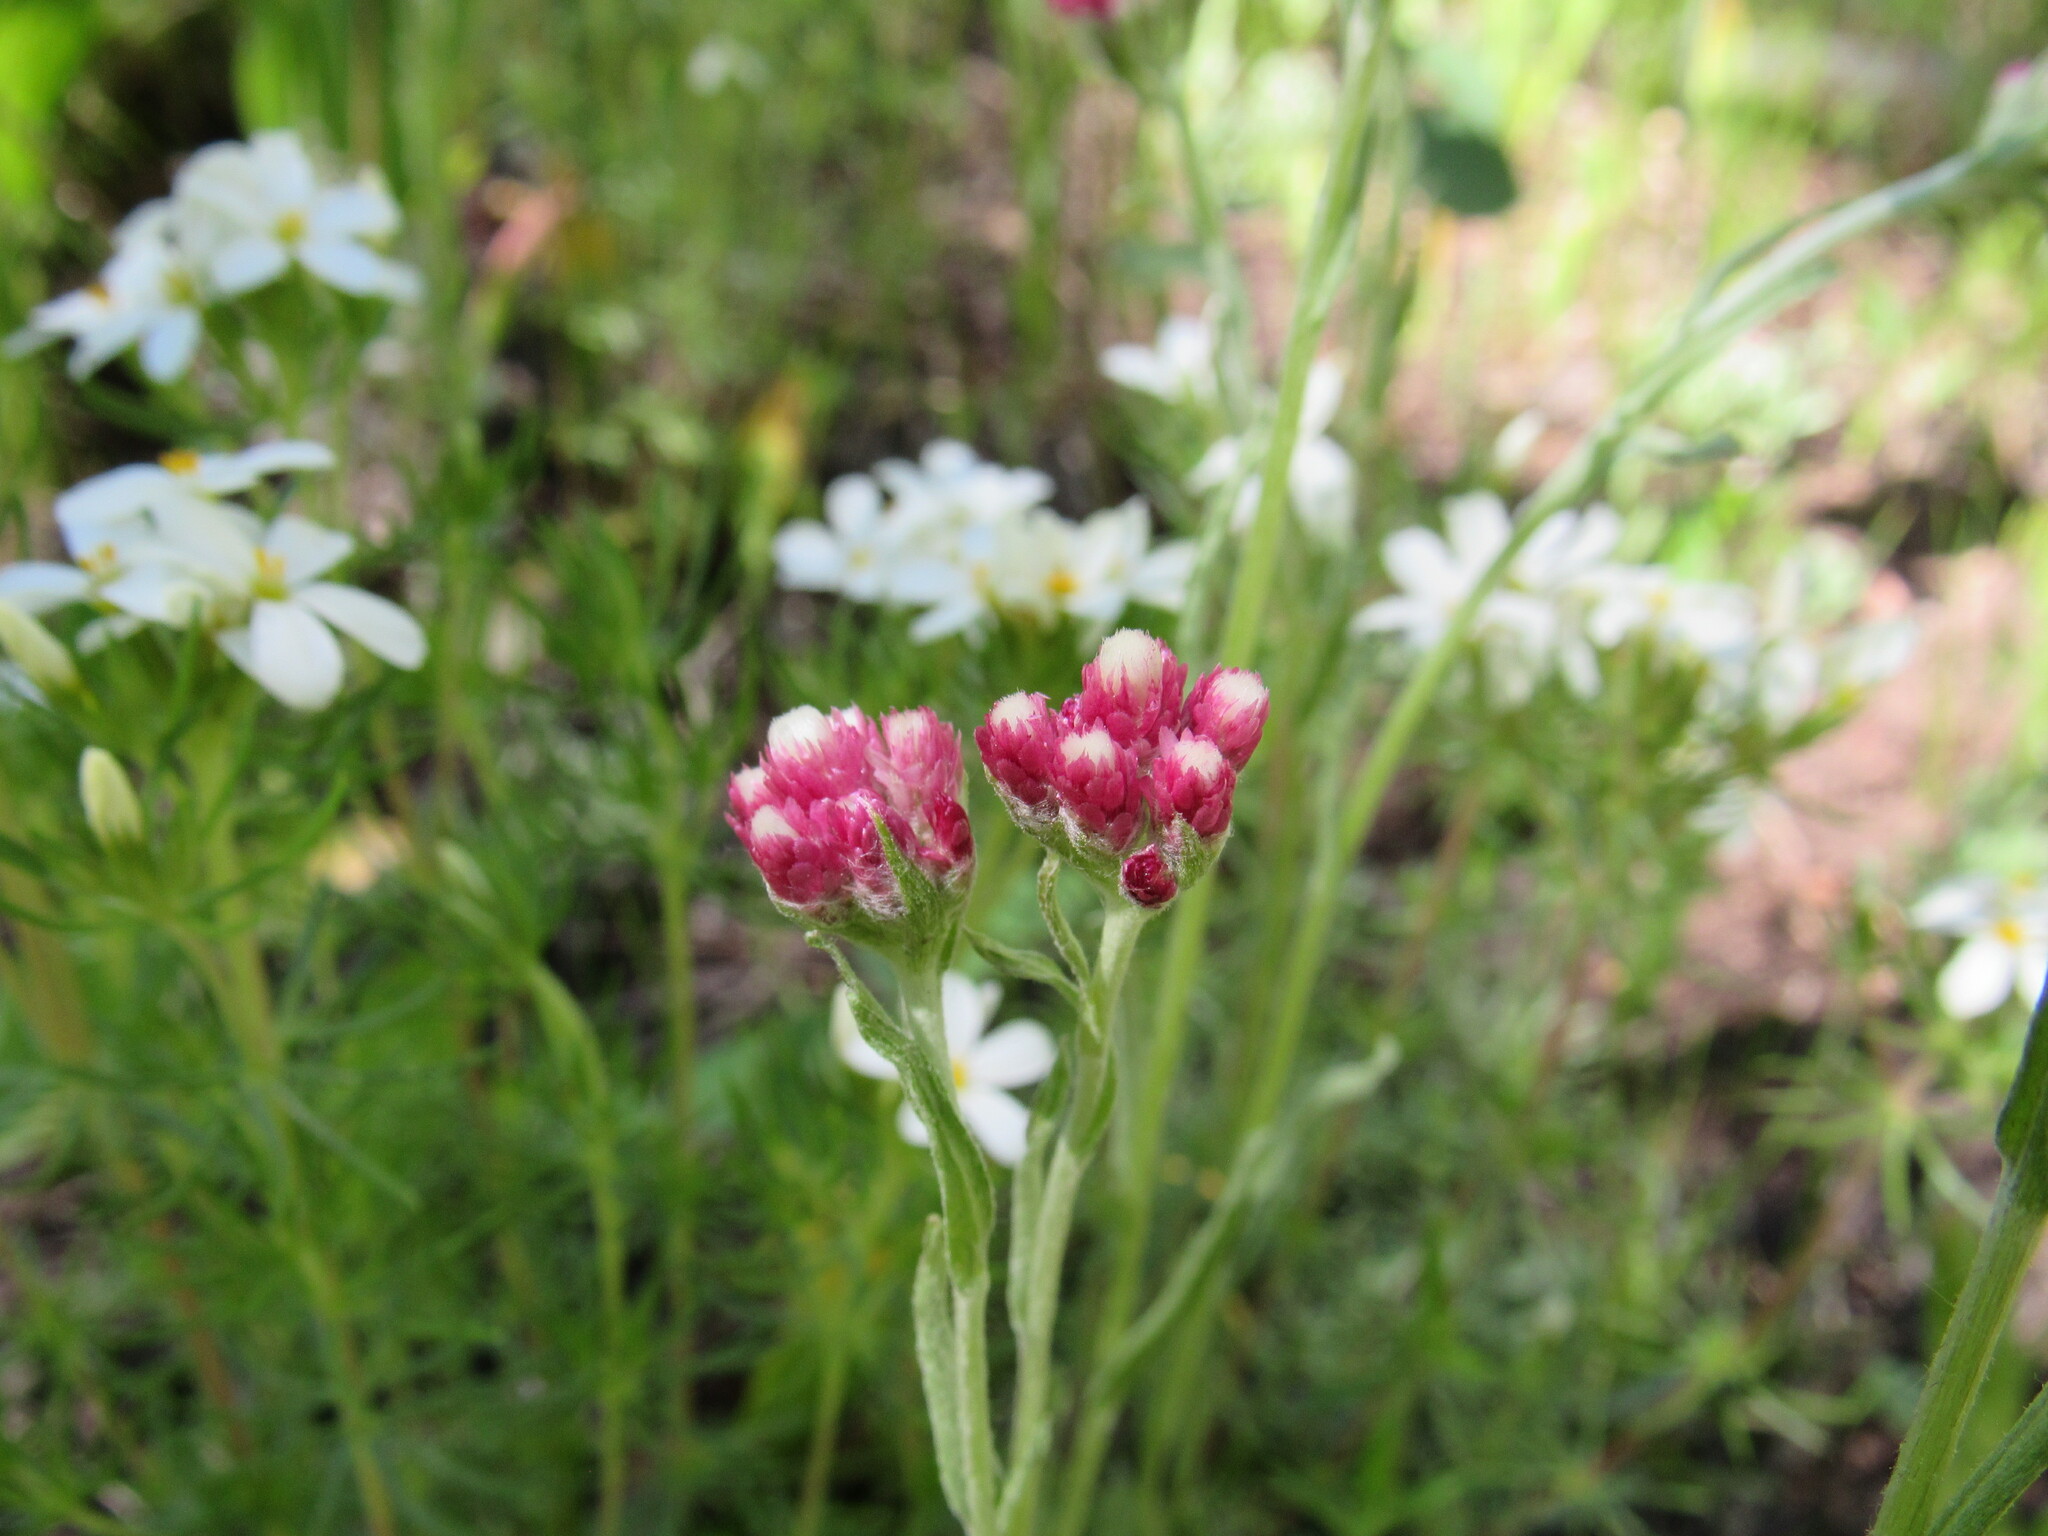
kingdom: Plantae
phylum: Tracheophyta
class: Magnoliopsida
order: Asterales
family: Asteraceae
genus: Antennaria
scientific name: Antennaria rosea
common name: Rosy pussytoes
